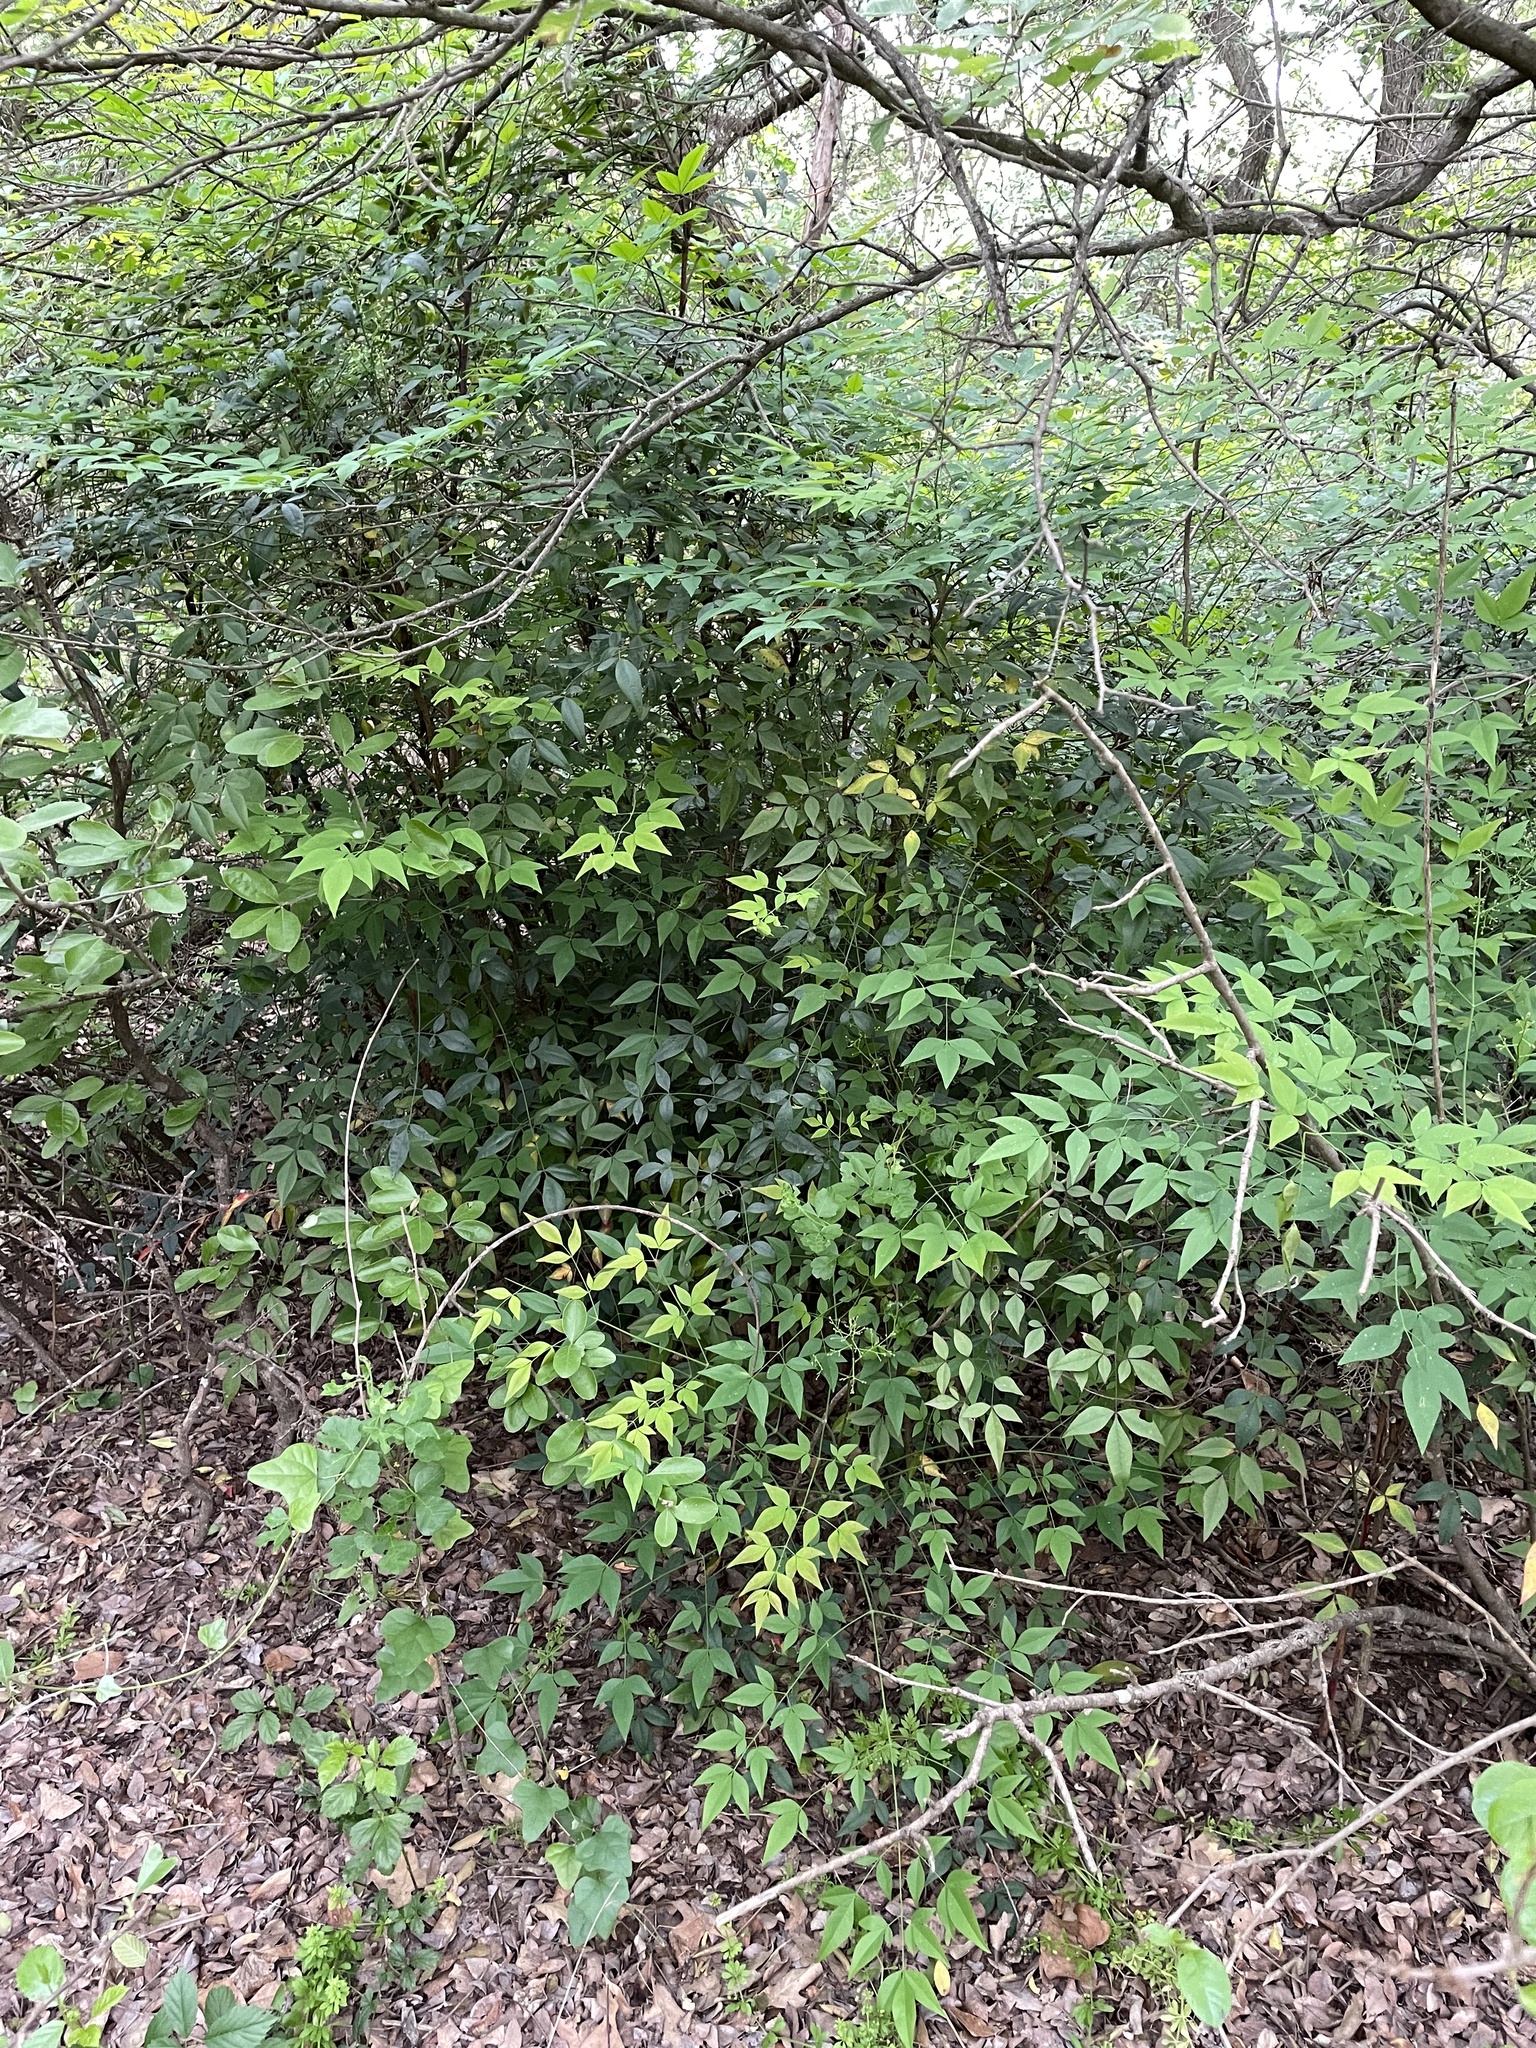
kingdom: Plantae
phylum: Tracheophyta
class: Magnoliopsida
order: Ranunculales
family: Berberidaceae
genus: Nandina
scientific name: Nandina domestica
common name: Sacred bamboo
